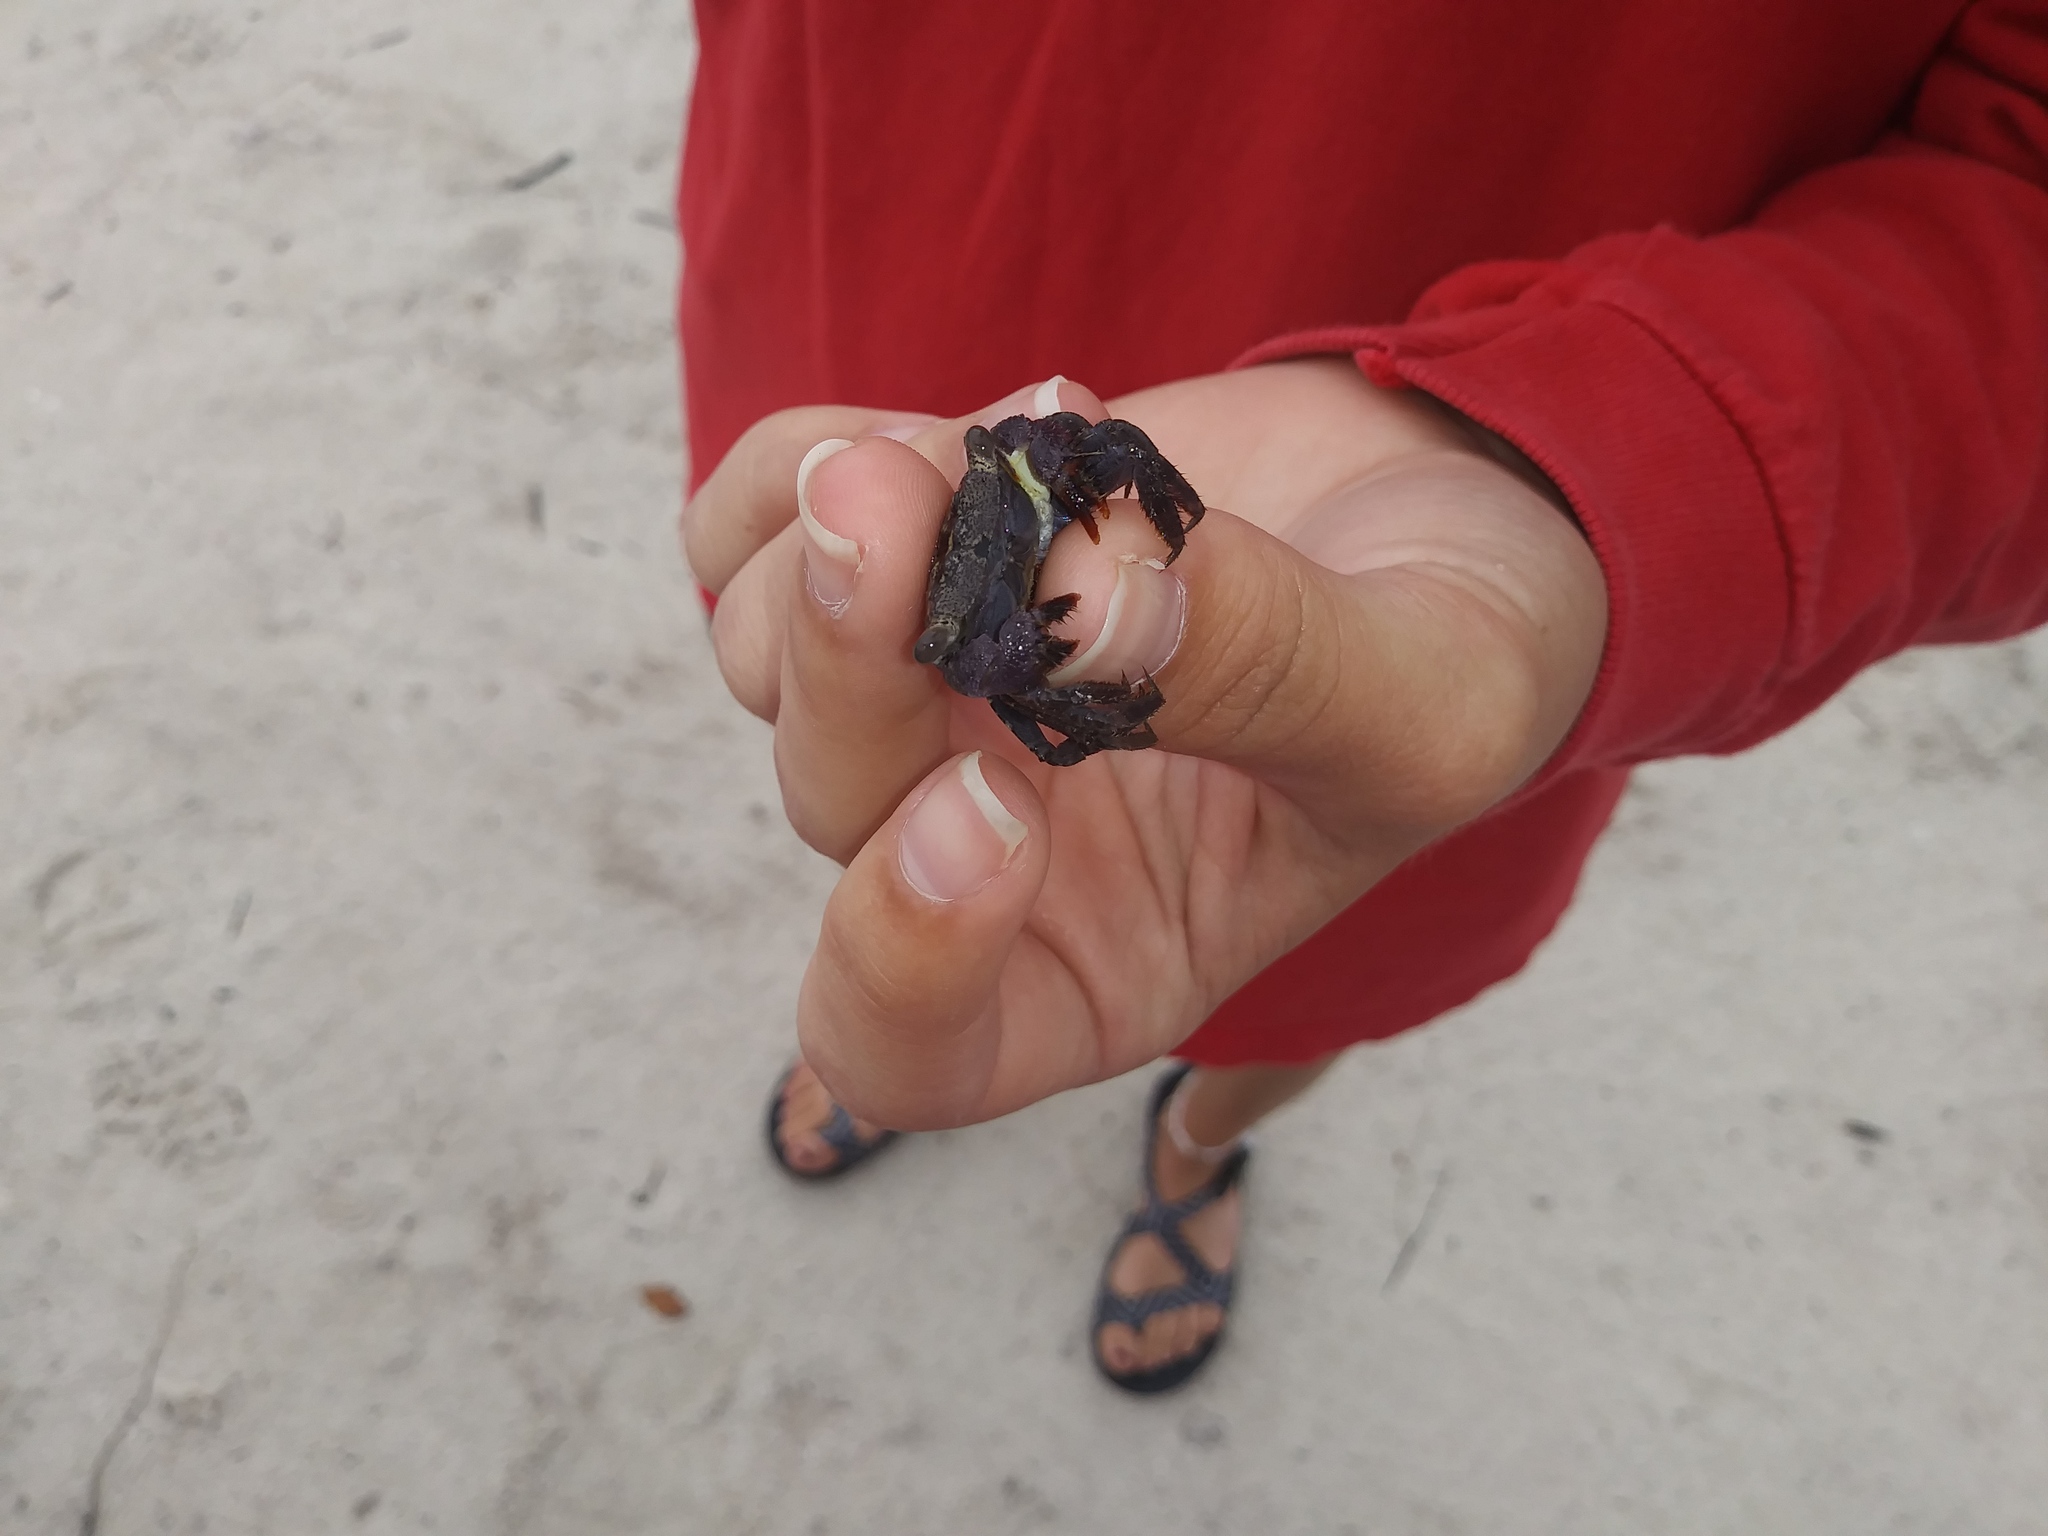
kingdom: Animalia
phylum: Arthropoda
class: Malacostraca
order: Decapoda
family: Sesarmidae
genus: Aratus
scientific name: Aratus pisonii
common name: Mangrove crab
